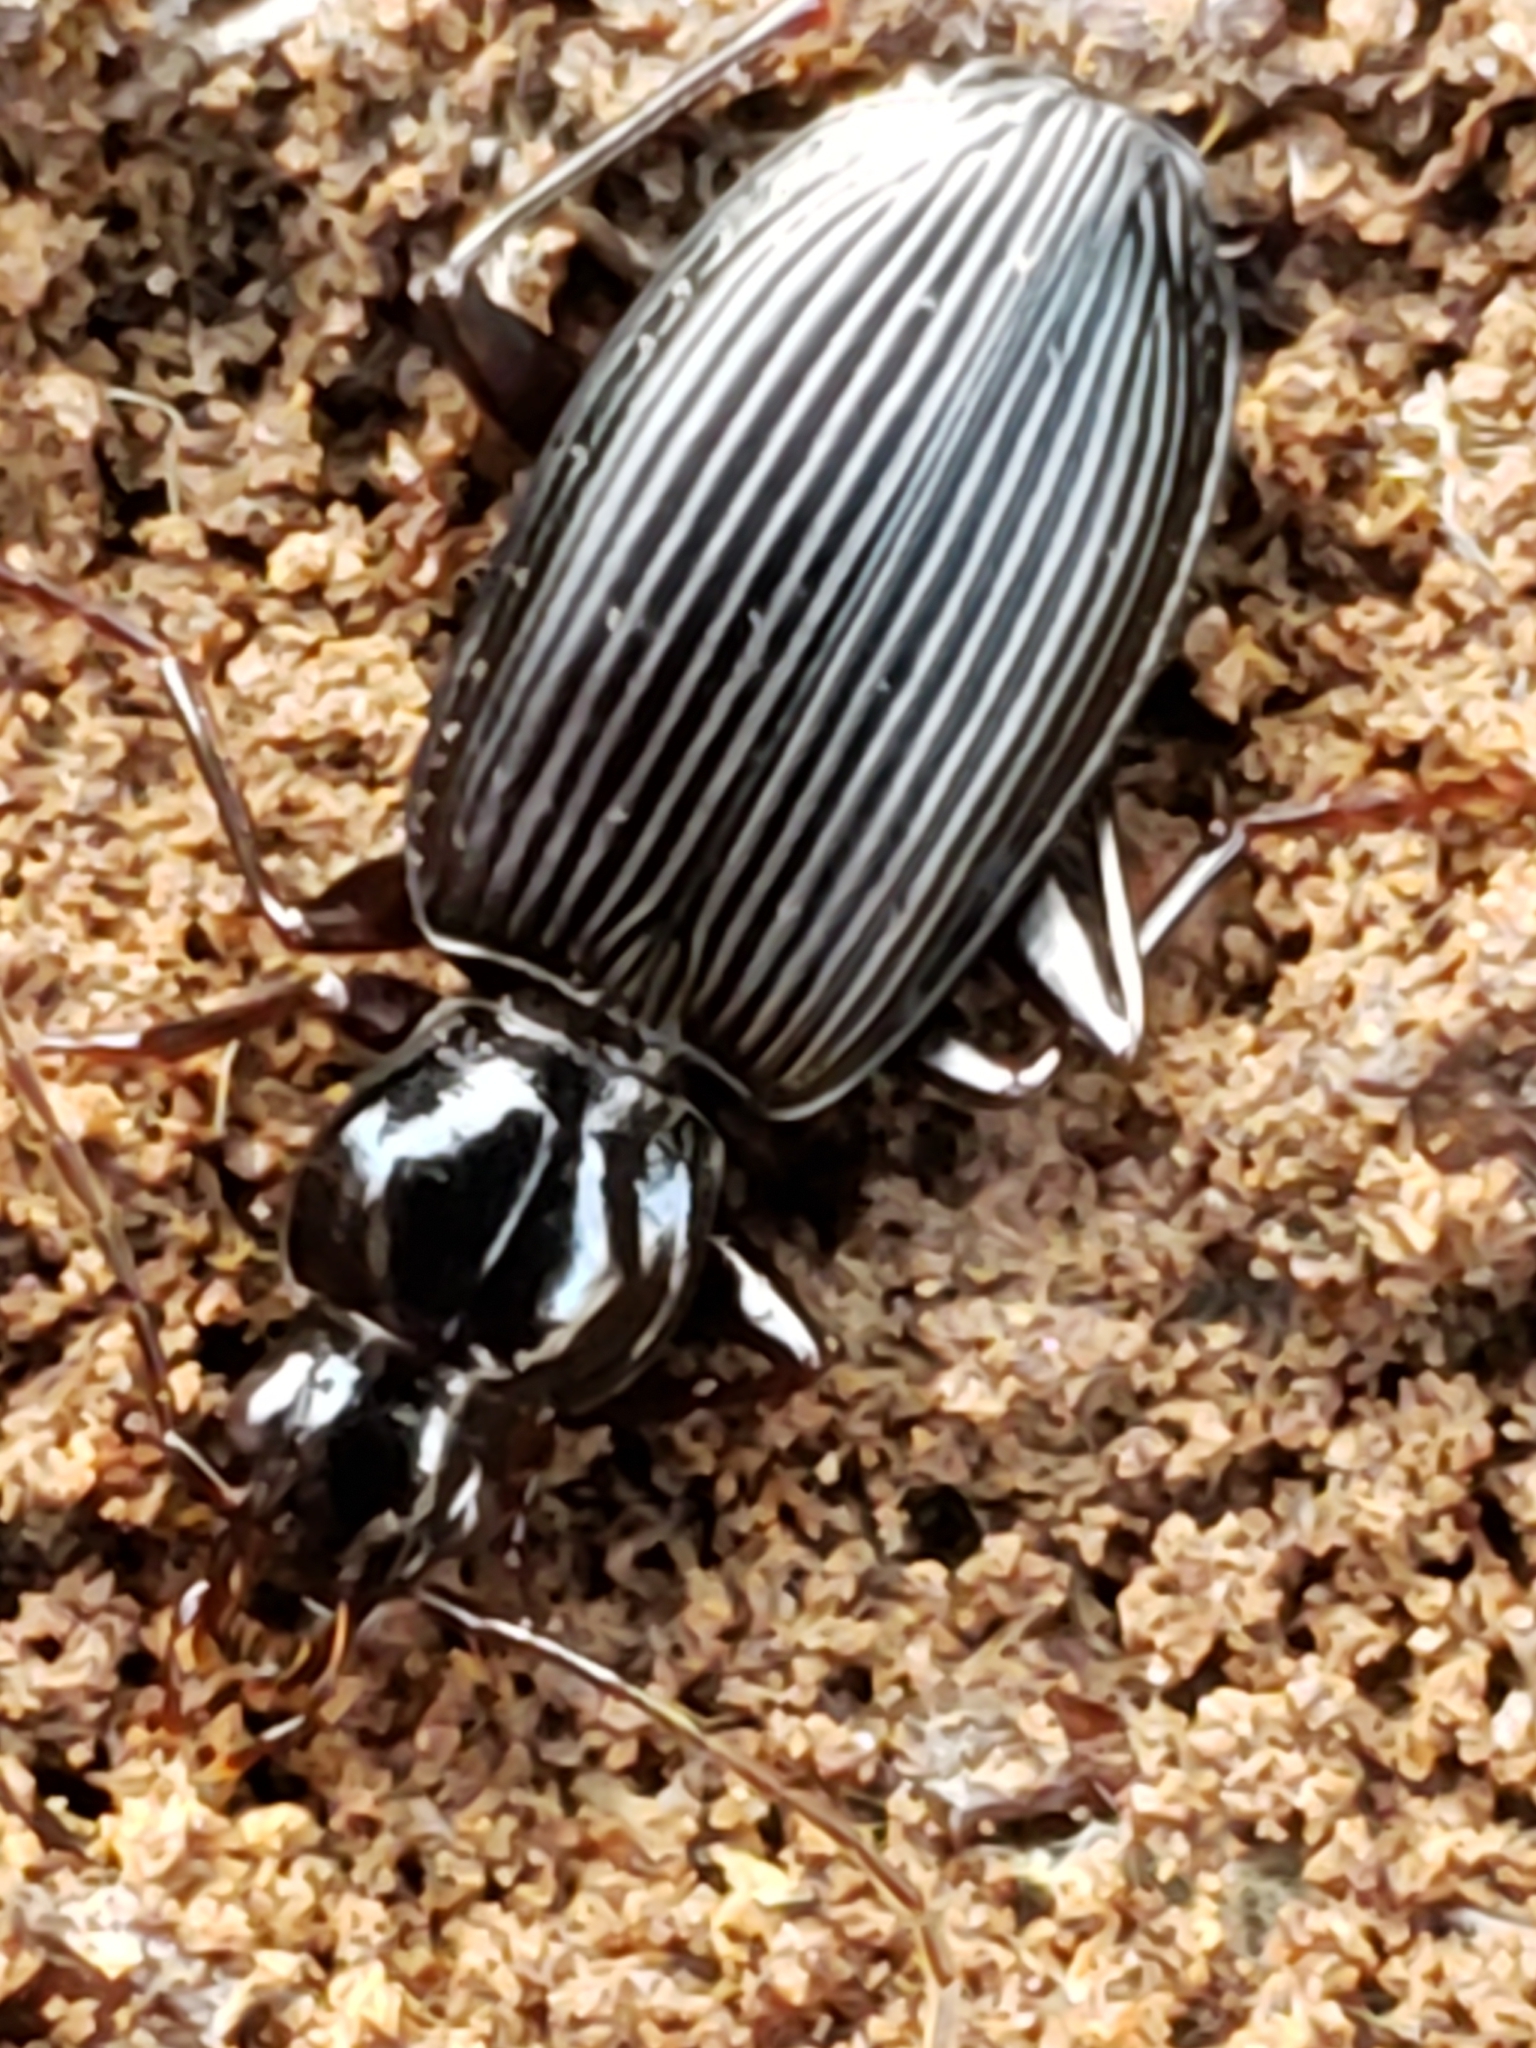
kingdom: Animalia
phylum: Arthropoda
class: Insecta
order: Coleoptera
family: Carabidae
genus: Platynus
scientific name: Platynus decentis
